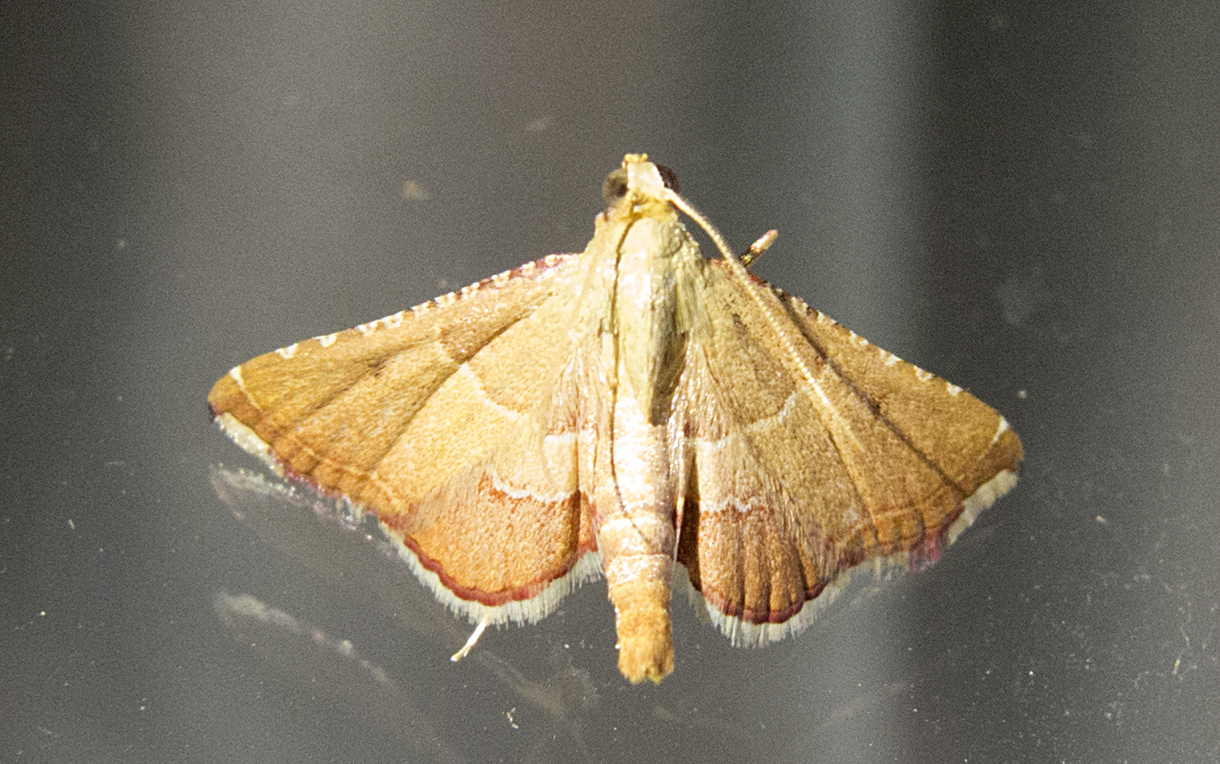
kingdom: Animalia
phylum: Arthropoda
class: Insecta
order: Lepidoptera
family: Pyralidae
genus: Endotricha
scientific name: Endotricha flammealis
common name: Rosy tabby
